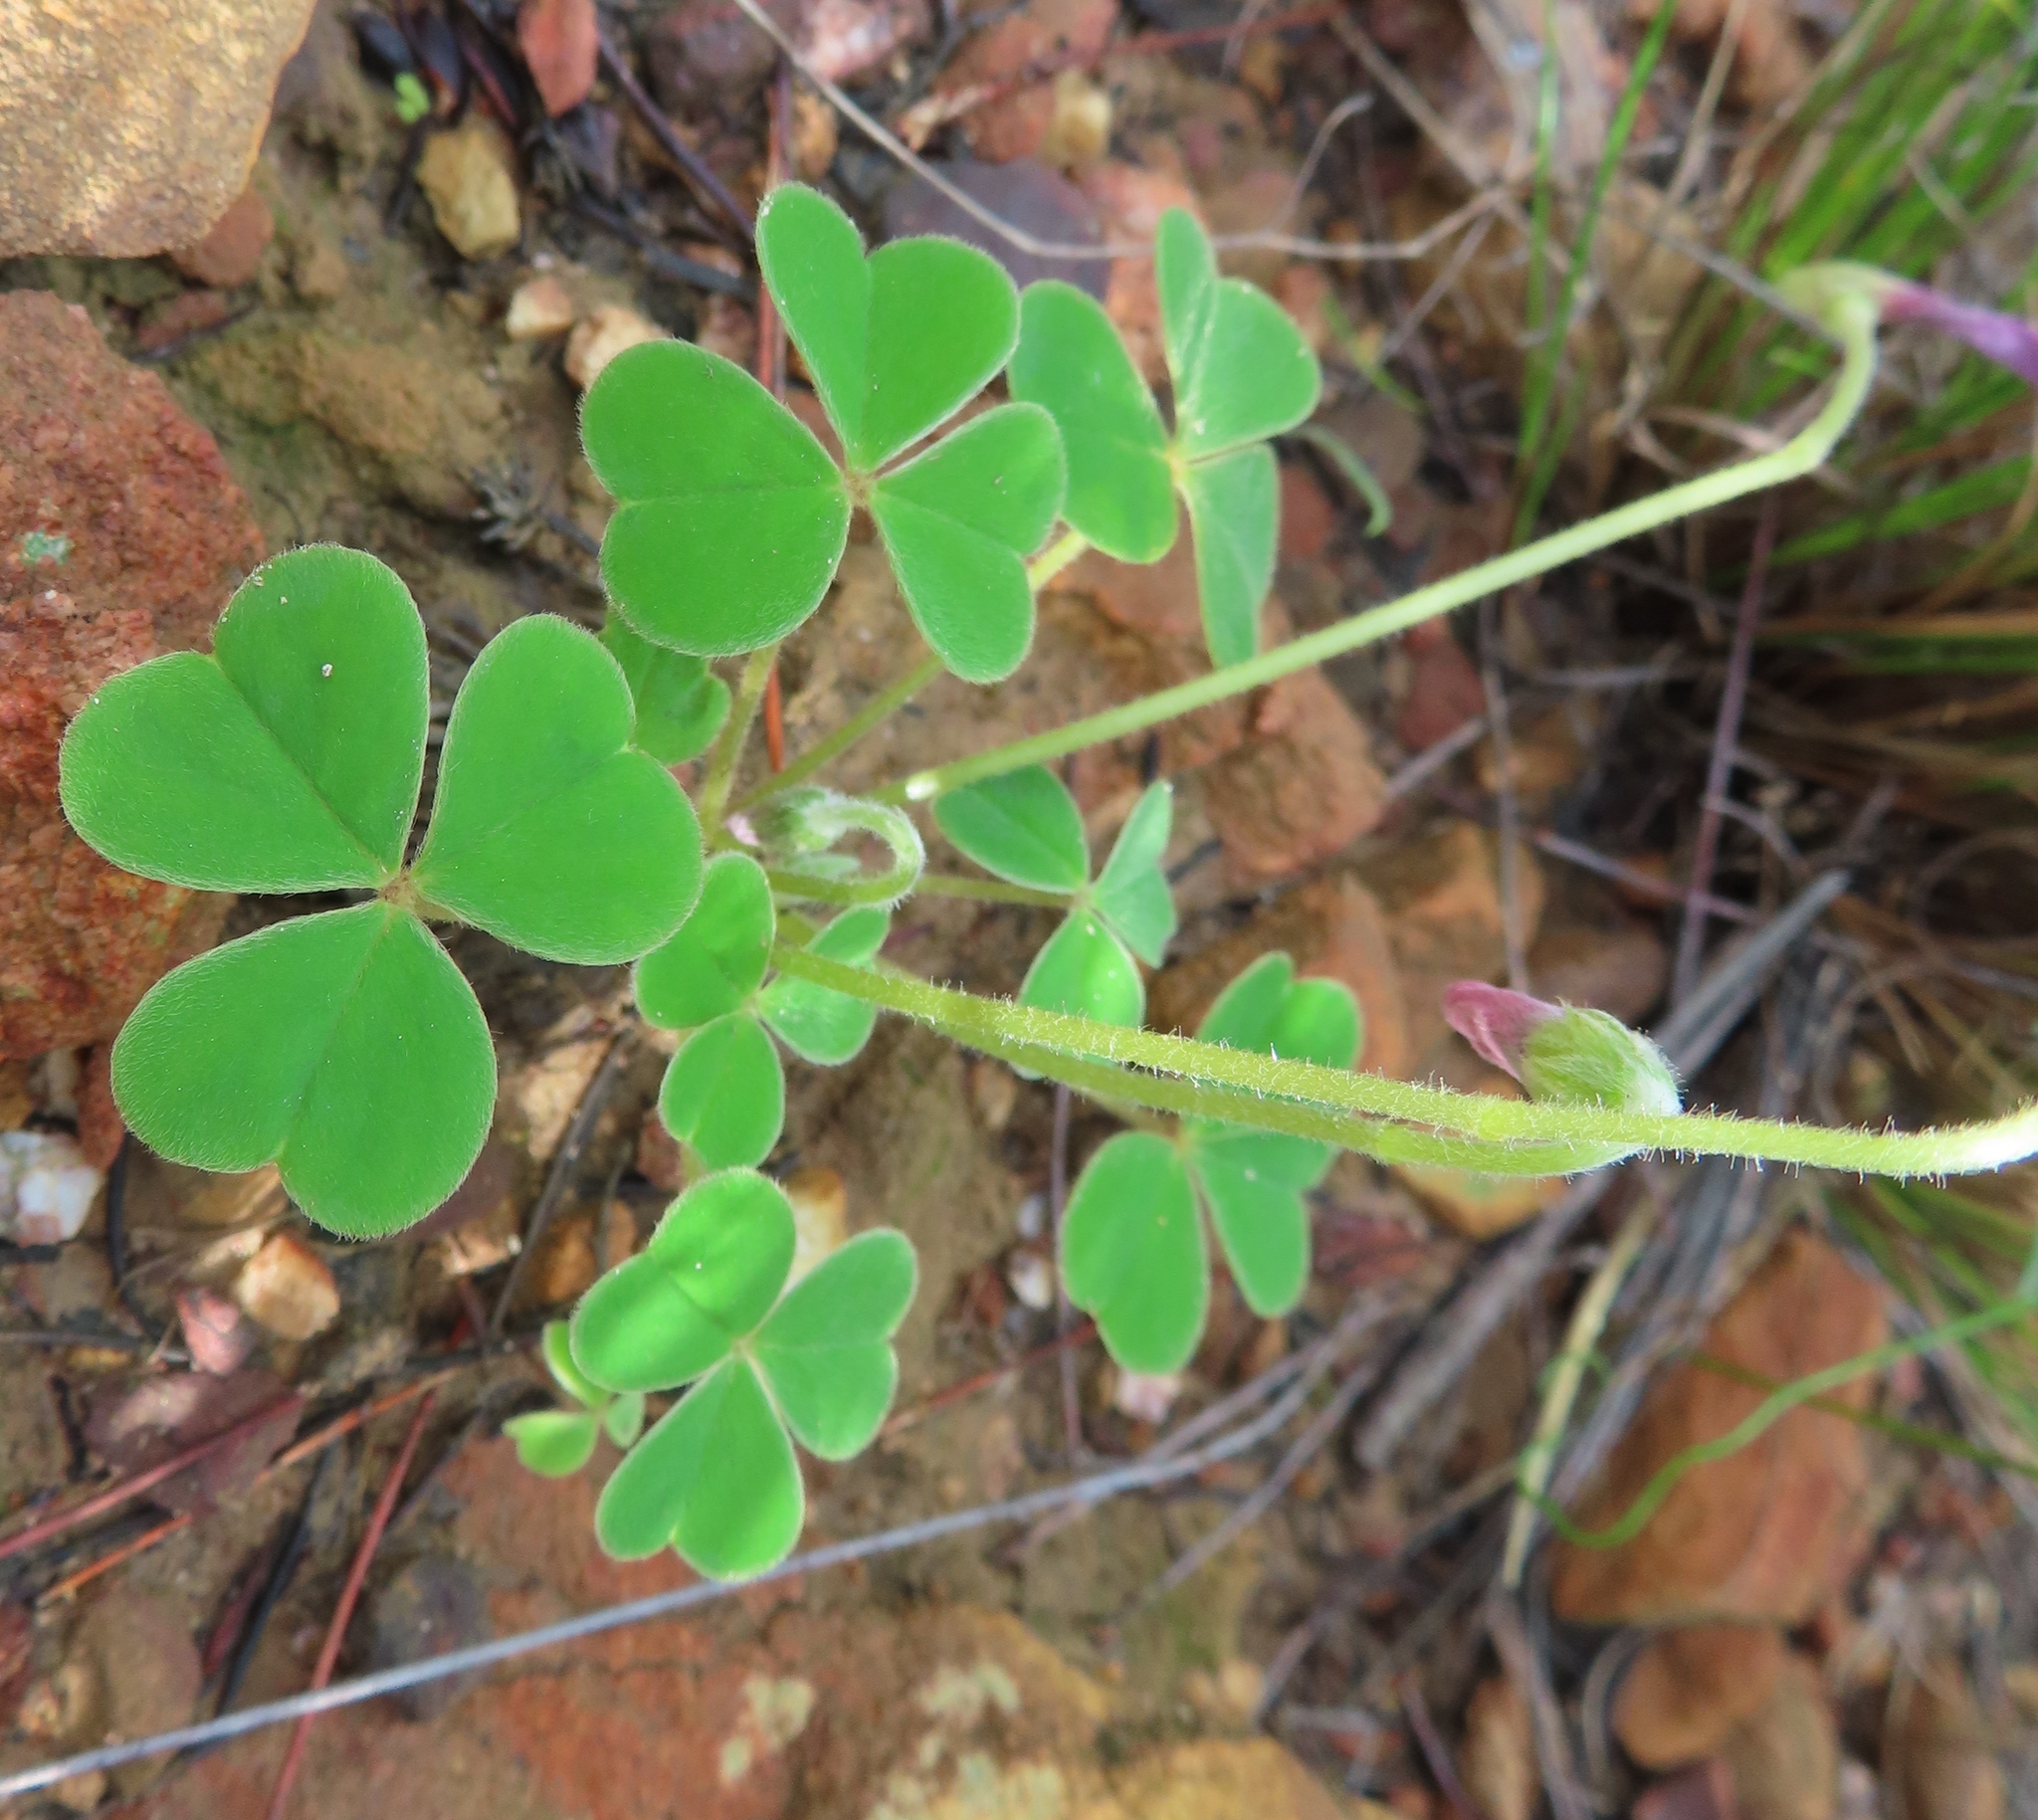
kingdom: Plantae
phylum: Tracheophyta
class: Magnoliopsida
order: Oxalidales
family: Oxalidaceae
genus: Oxalis
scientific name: Oxalis lanata
